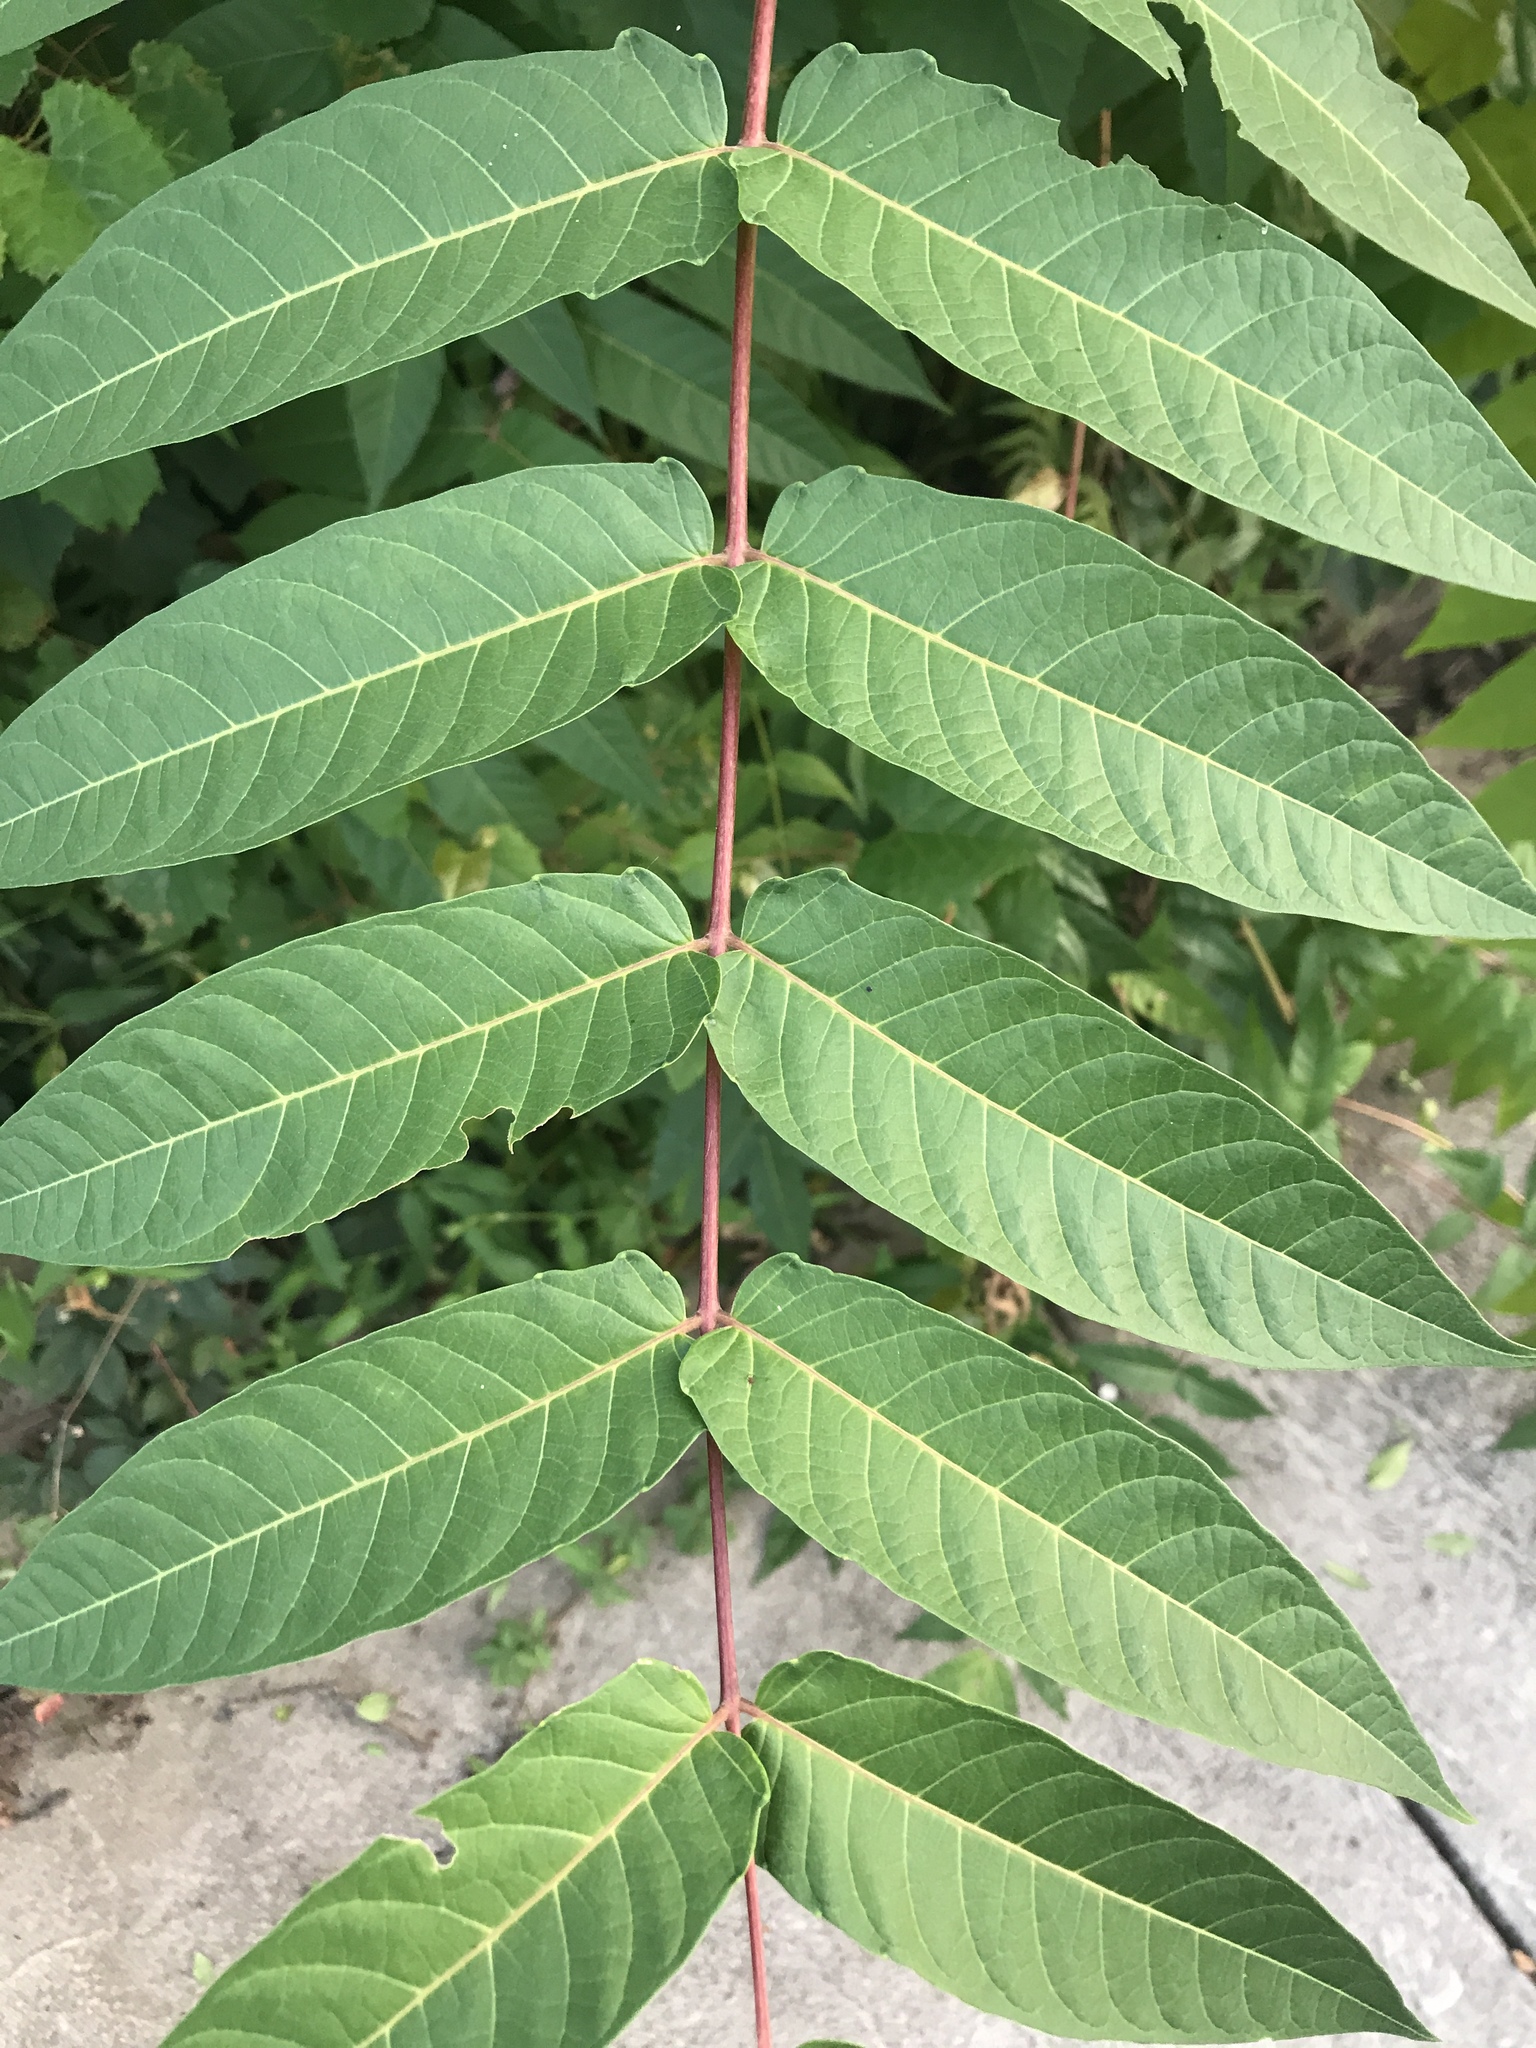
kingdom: Plantae
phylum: Tracheophyta
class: Magnoliopsida
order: Sapindales
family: Simaroubaceae
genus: Ailanthus
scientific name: Ailanthus altissima
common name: Tree-of-heaven
